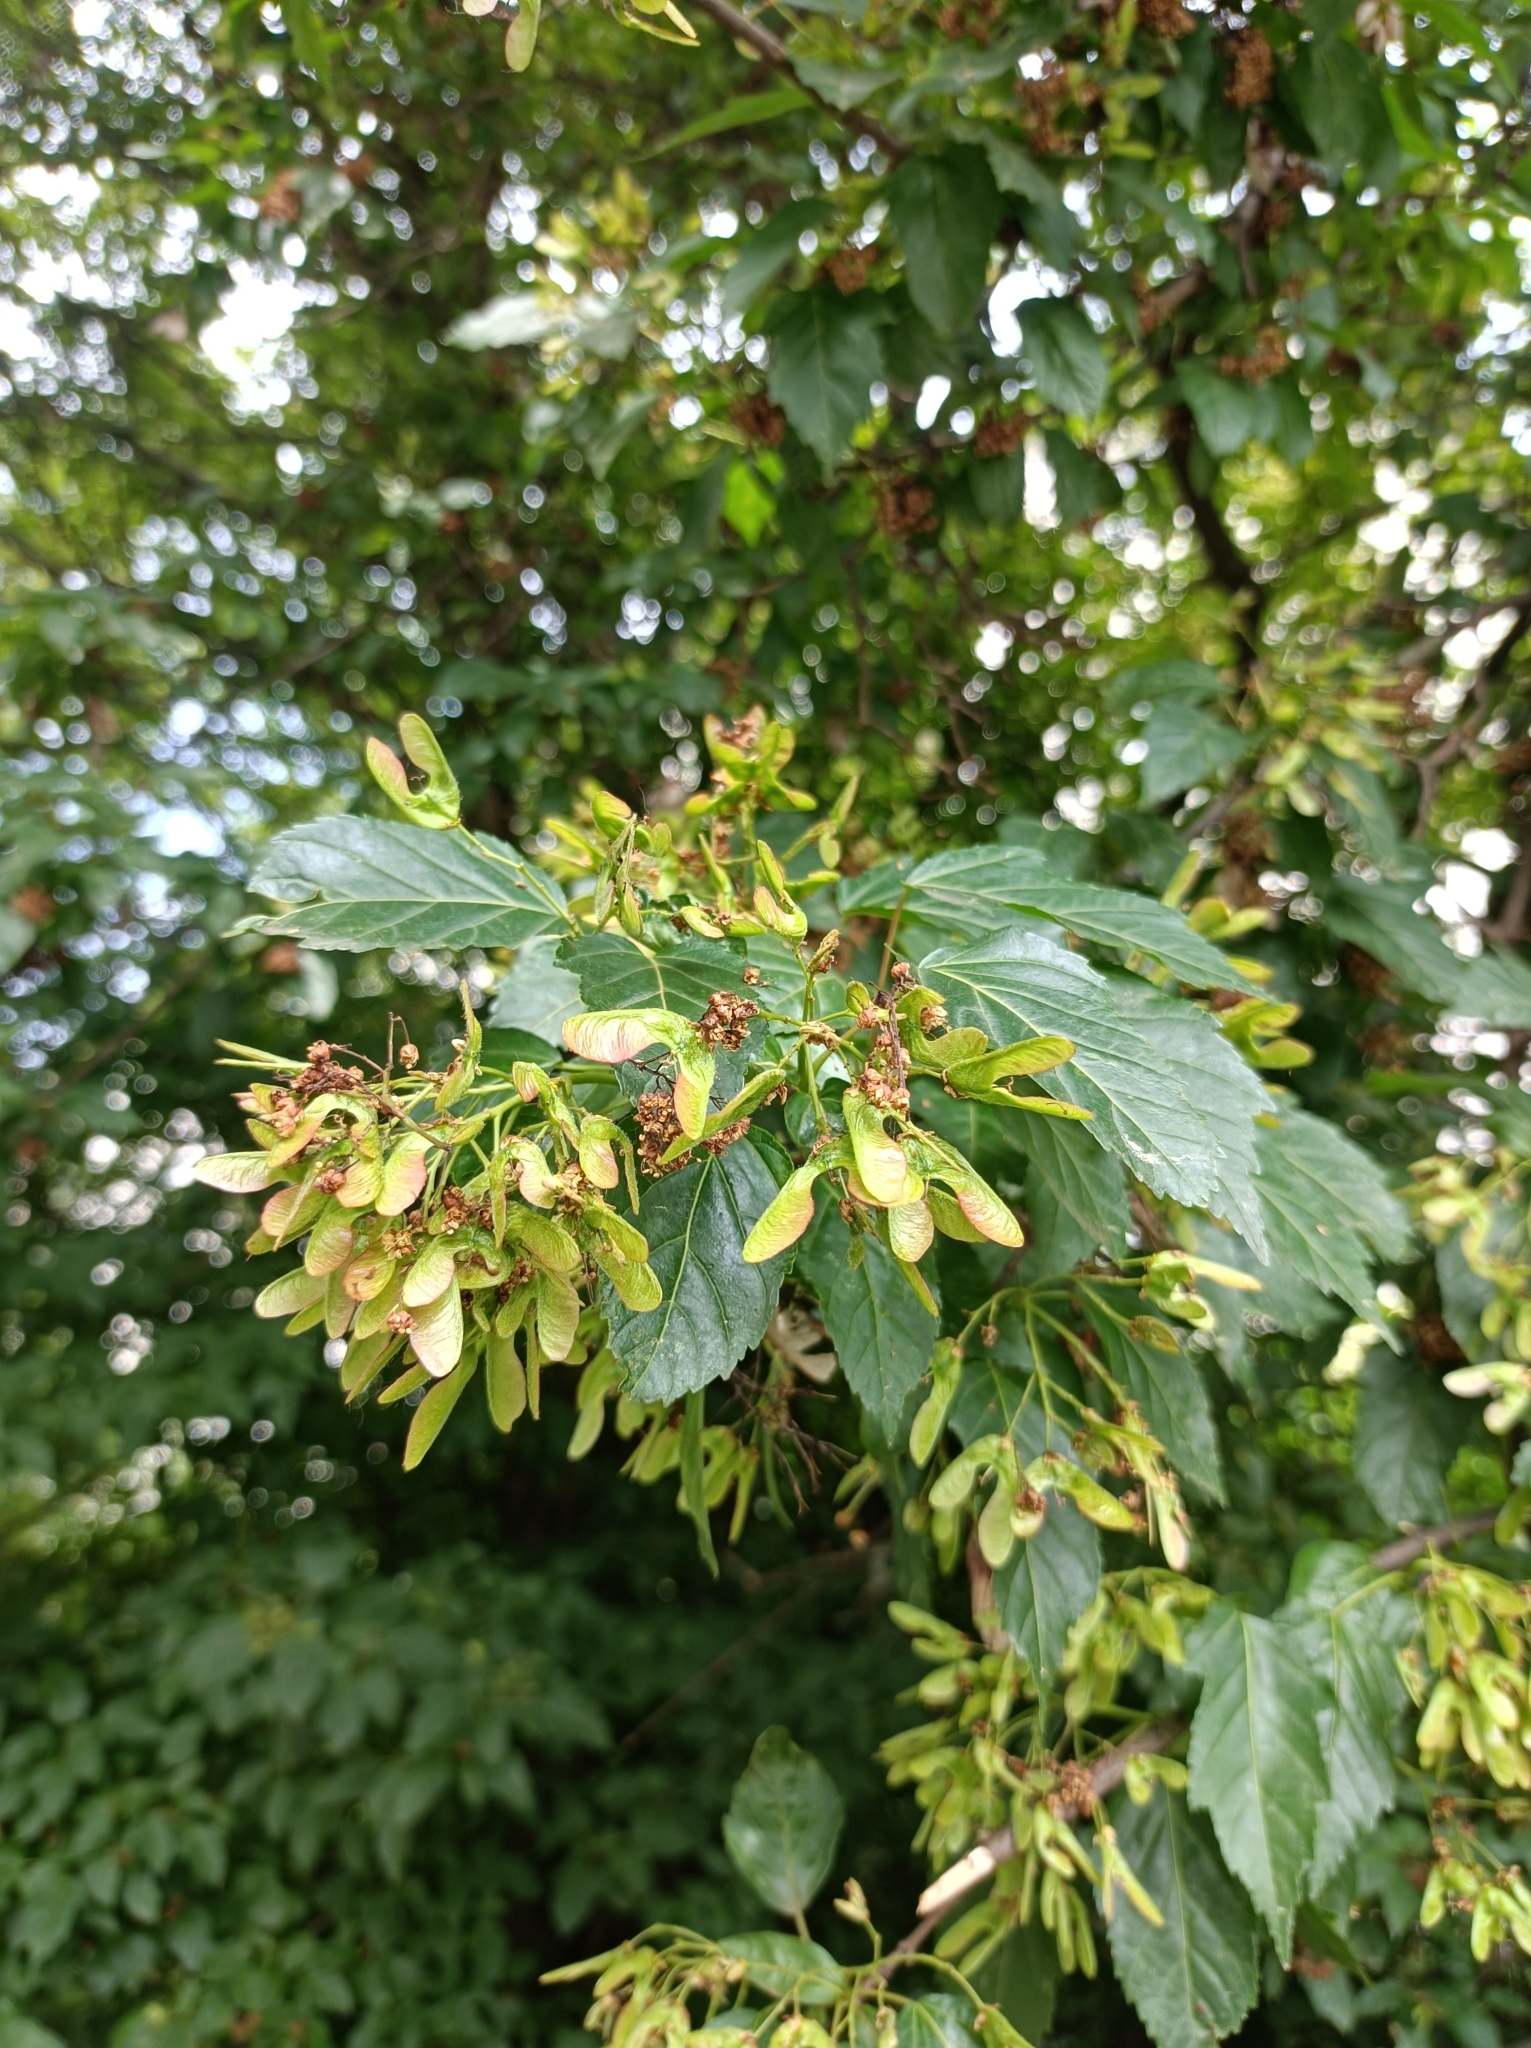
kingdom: Plantae
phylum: Tracheophyta
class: Magnoliopsida
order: Sapindales
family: Sapindaceae
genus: Acer
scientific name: Acer tataricum
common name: Tartar maple
